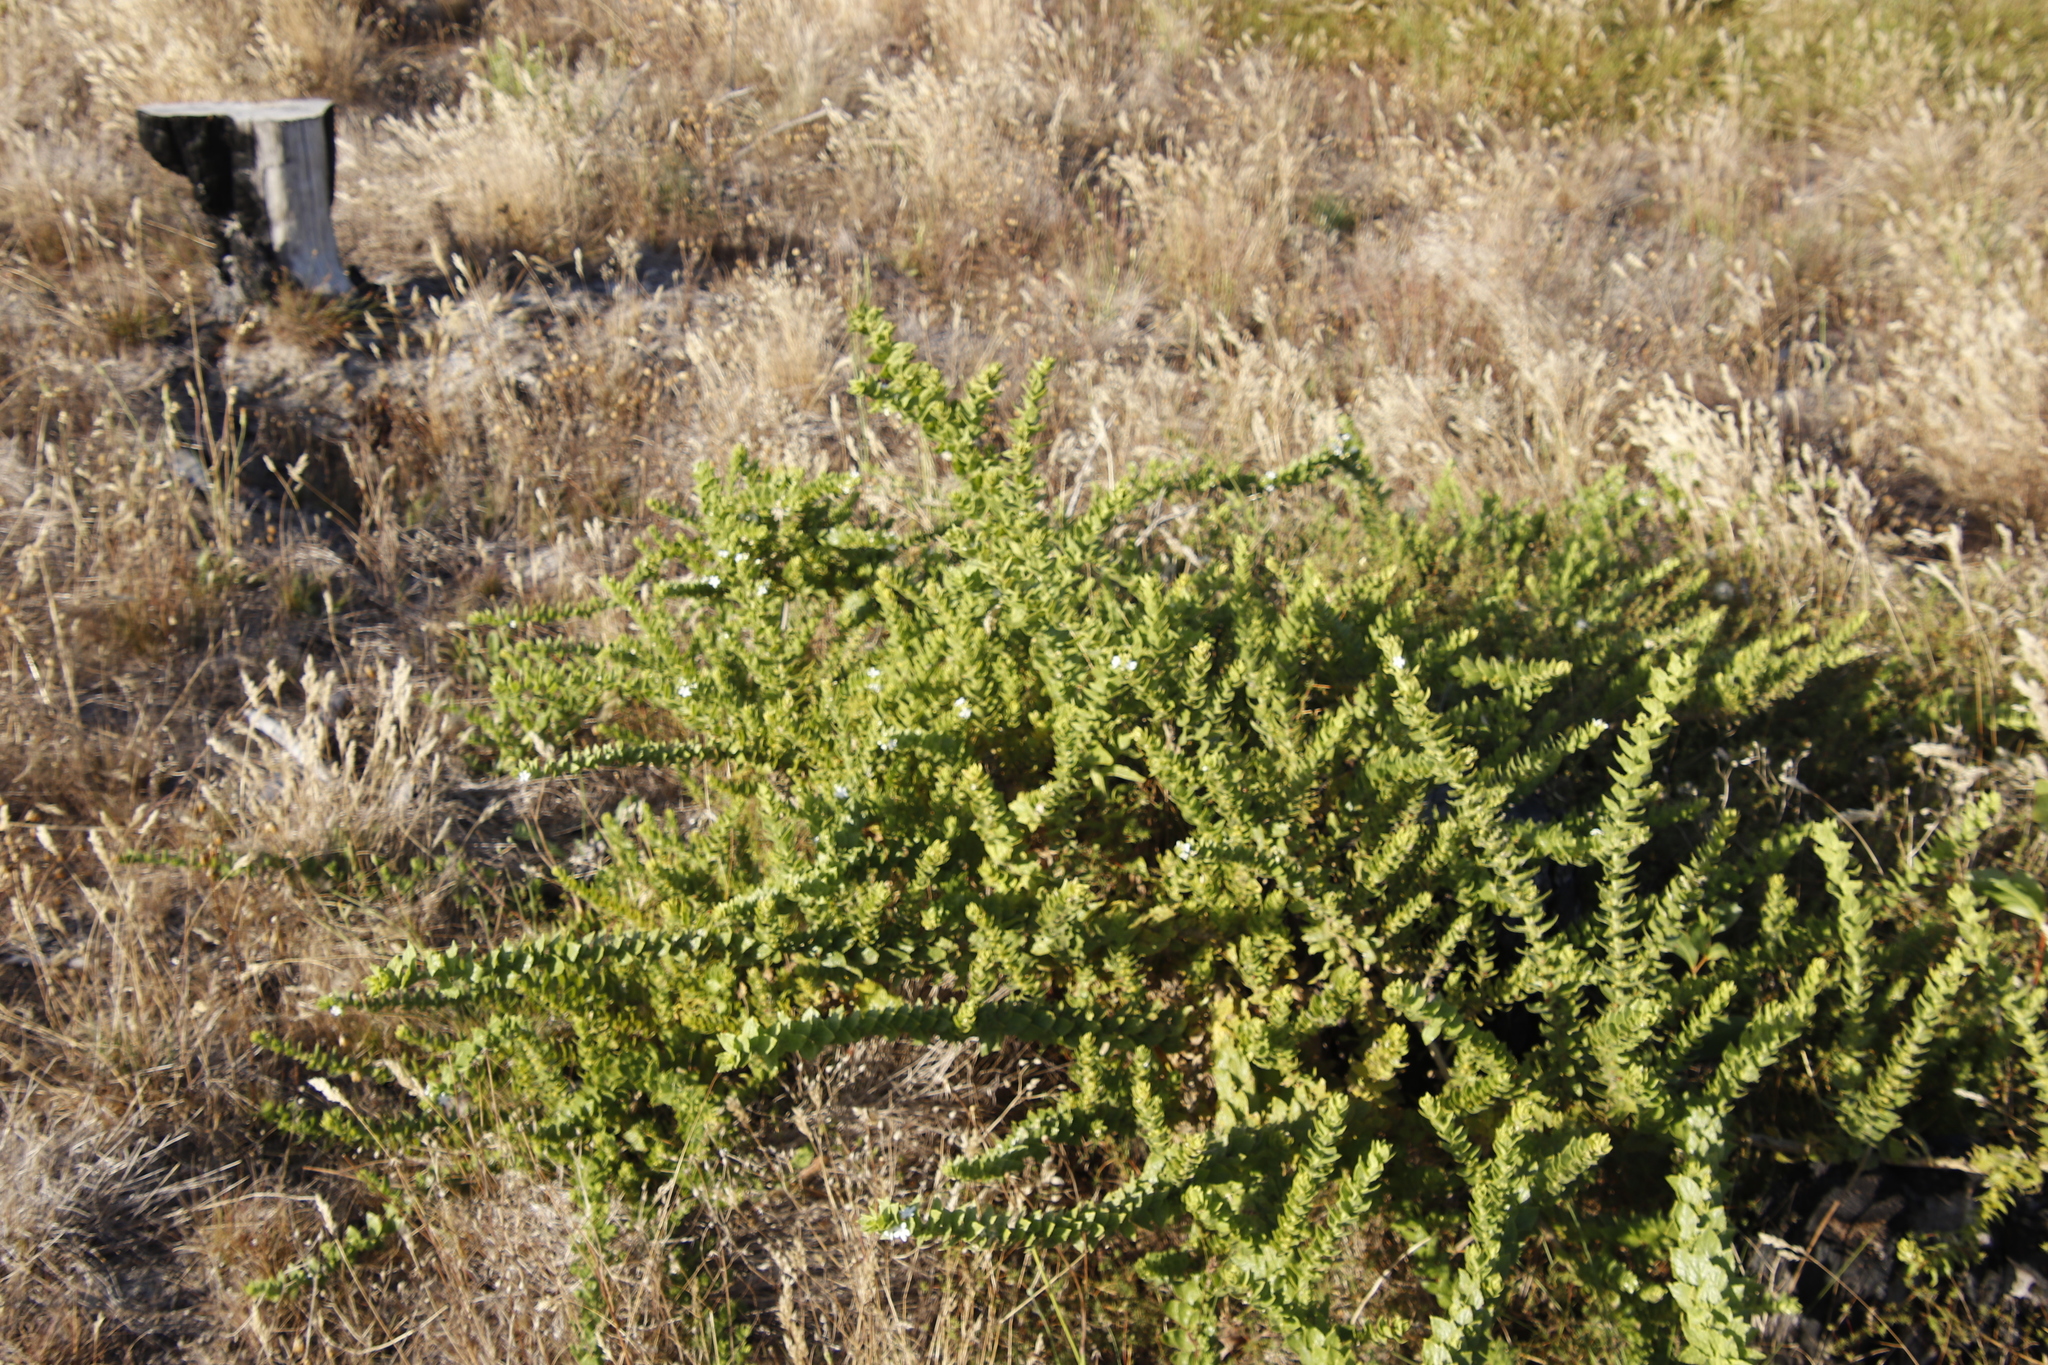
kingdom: Plantae
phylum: Tracheophyta
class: Magnoliopsida
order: Lamiales
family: Scrophulariaceae
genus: Oftia
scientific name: Oftia africana
